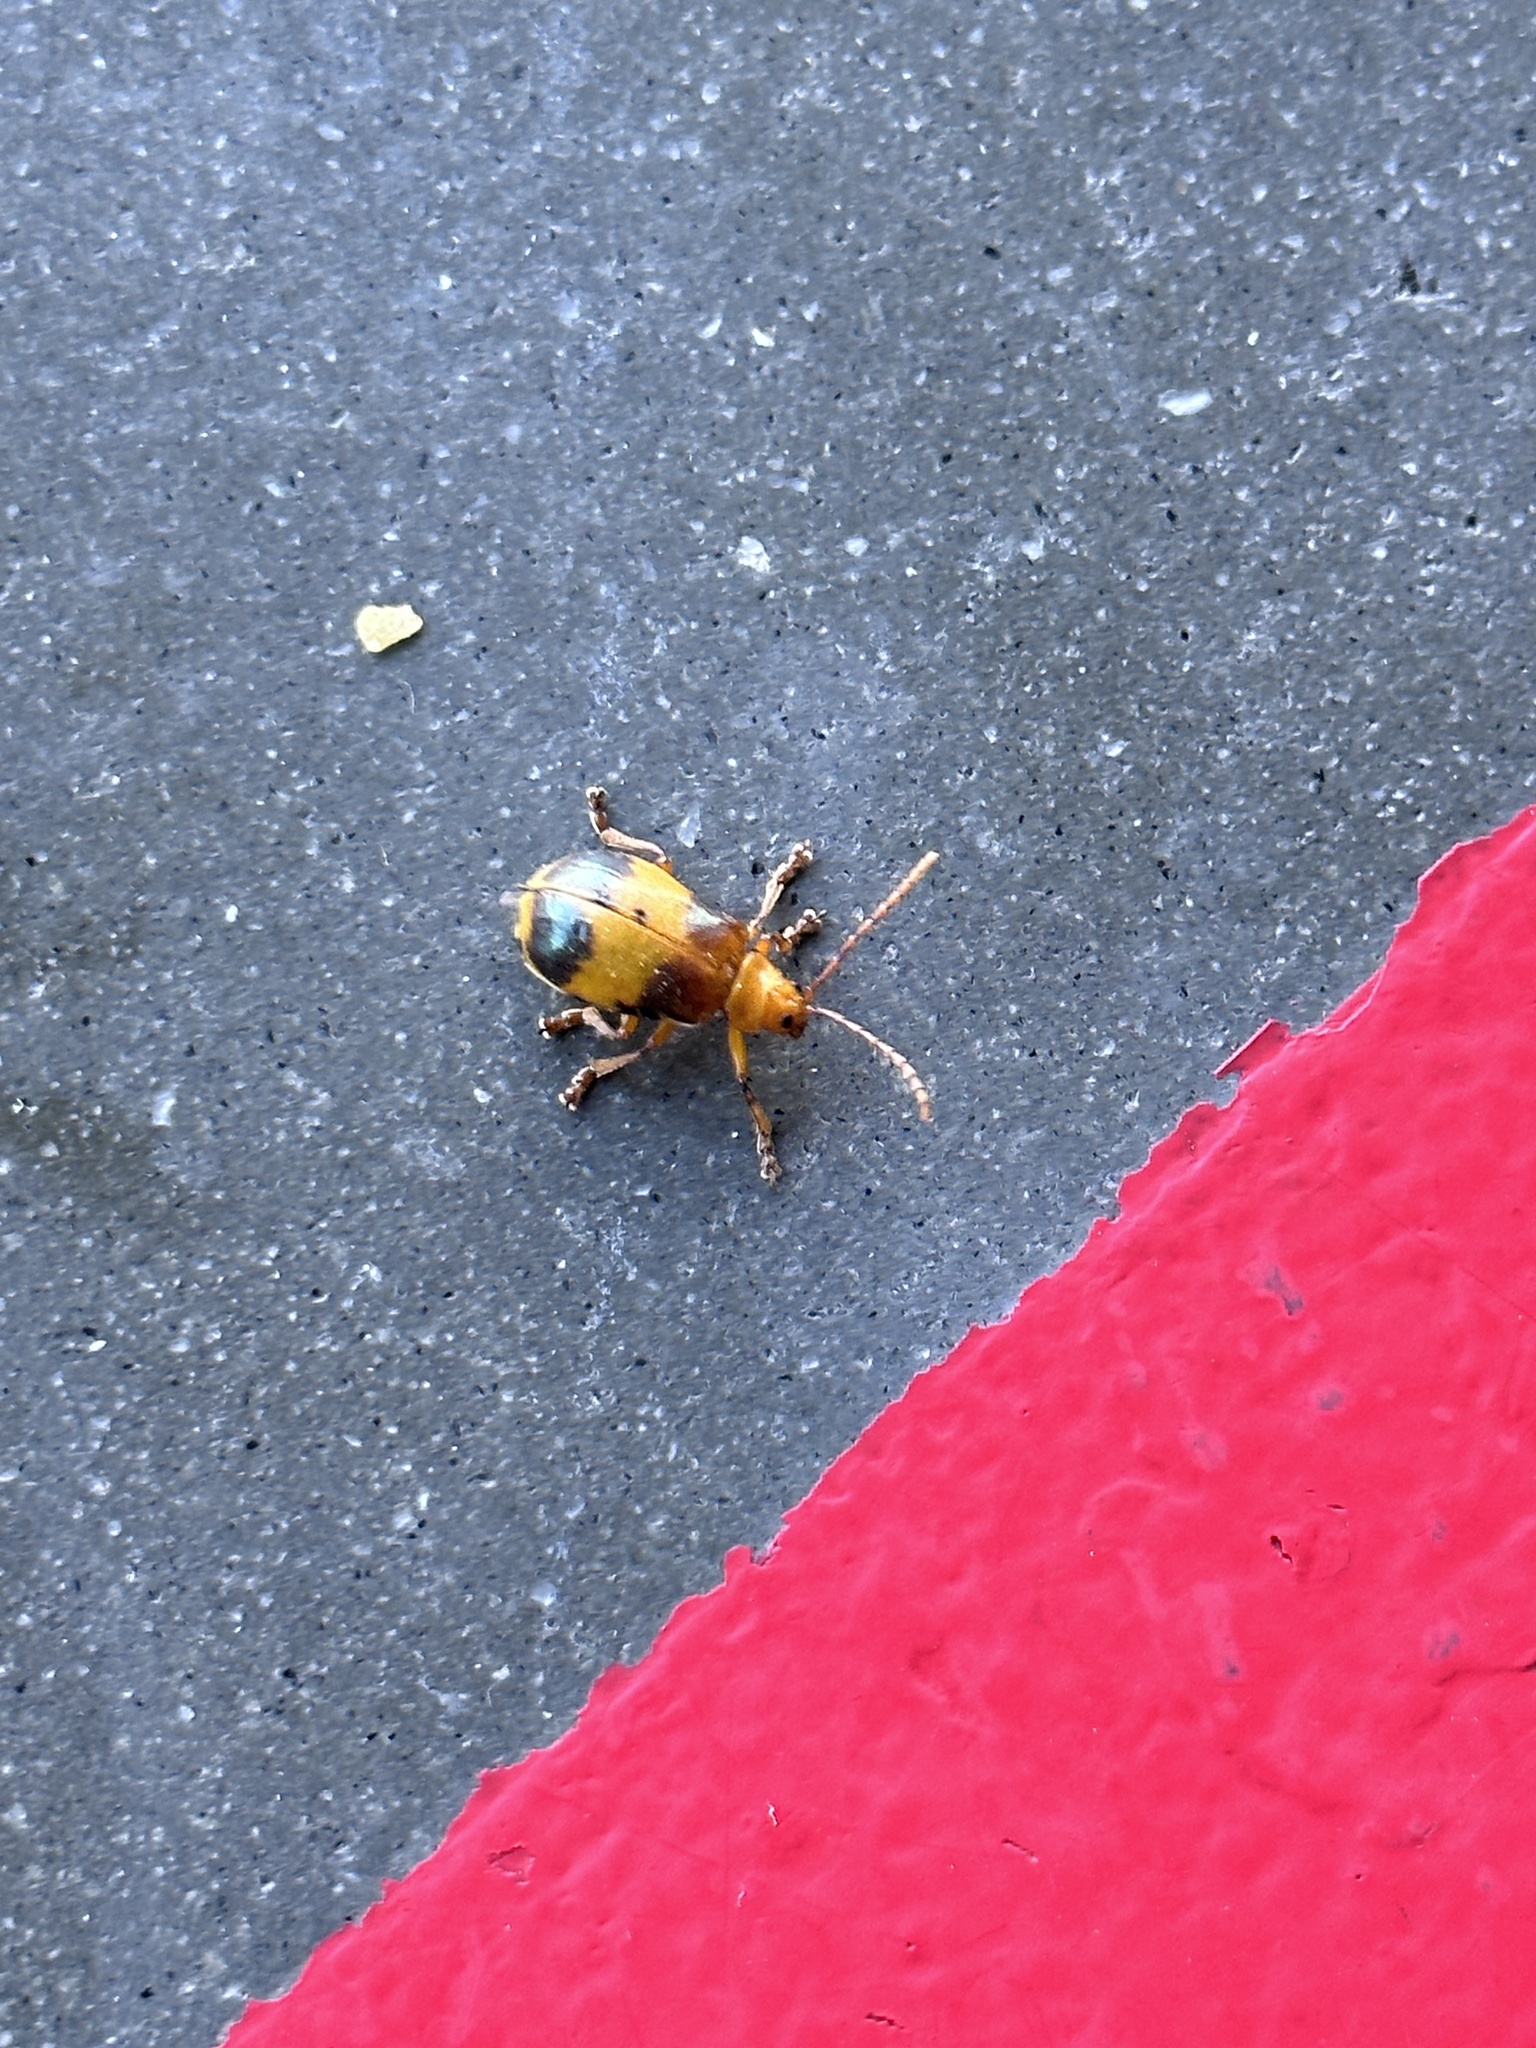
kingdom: Animalia
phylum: Arthropoda
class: Insecta
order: Coleoptera
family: Chrysomelidae
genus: Monocesta
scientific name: Monocesta coryli
